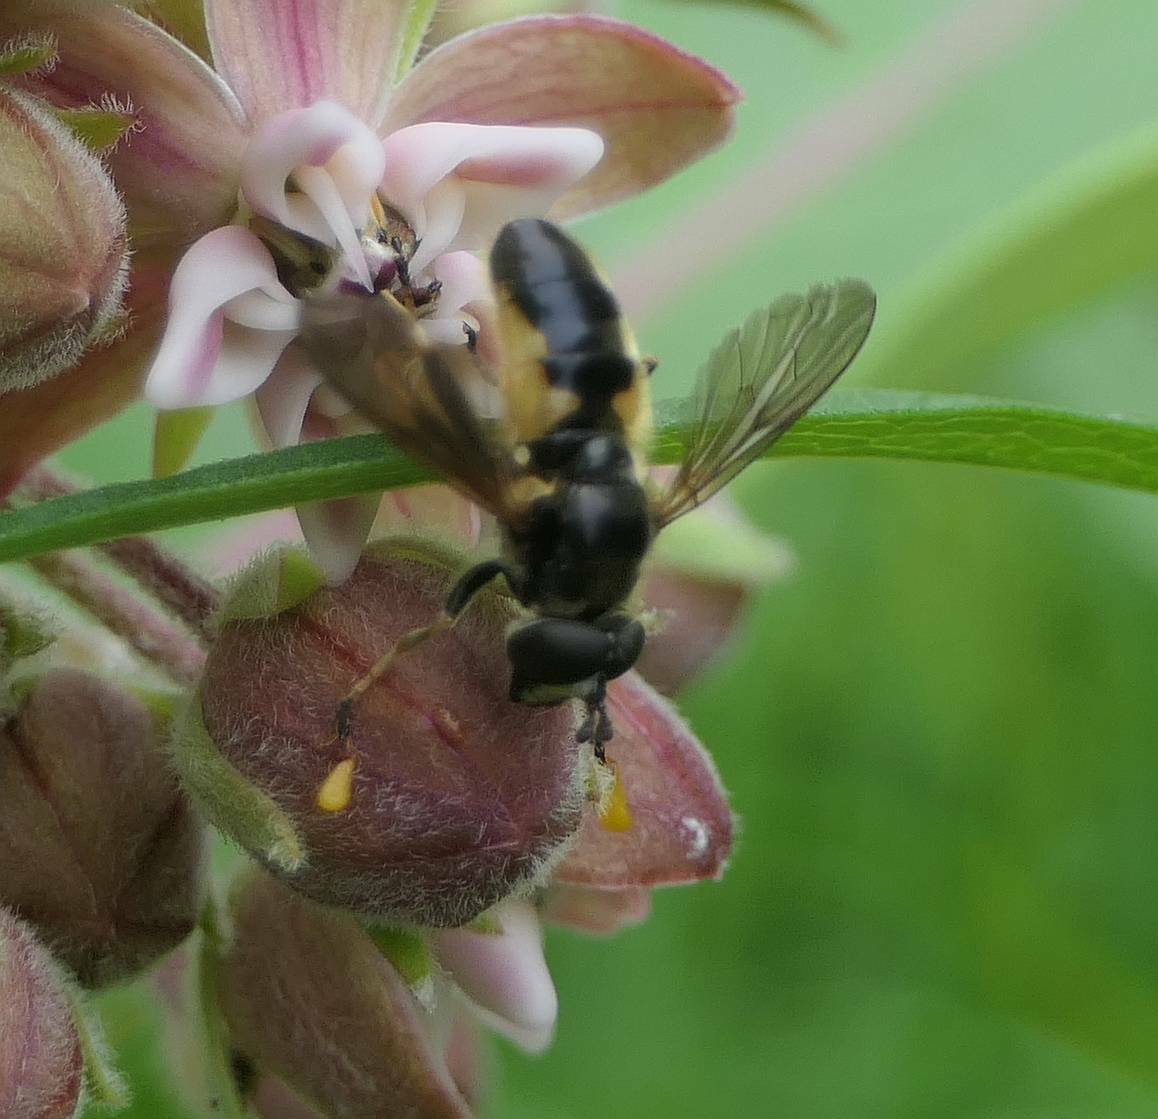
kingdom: Animalia
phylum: Arthropoda
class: Insecta
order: Diptera
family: Syrphidae
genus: Blera
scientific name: Blera confusa
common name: Confusing wood fly
